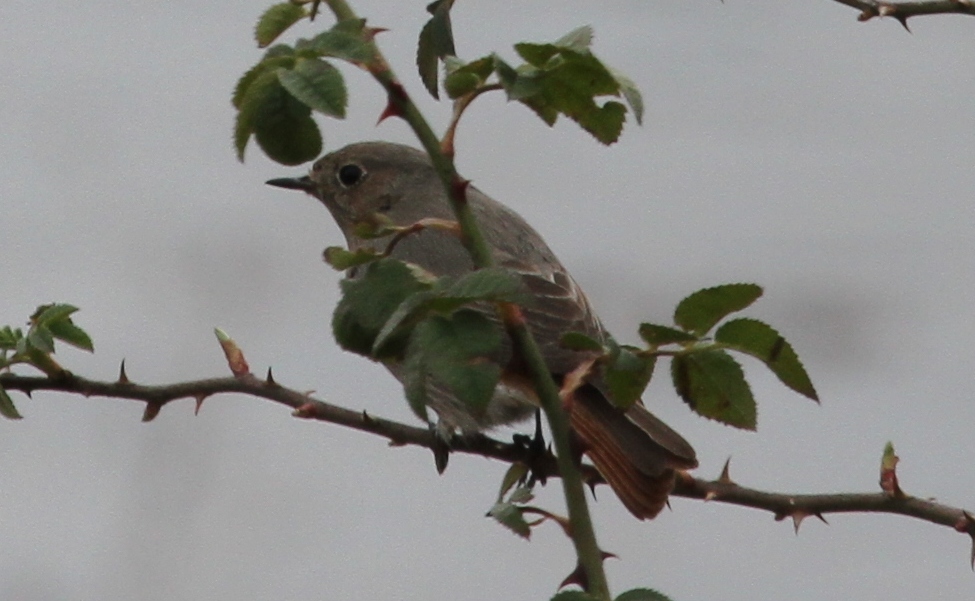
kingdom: Animalia
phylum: Chordata
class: Aves
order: Passeriformes
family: Muscicapidae
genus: Phoenicurus
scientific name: Phoenicurus ochruros
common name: Black redstart
